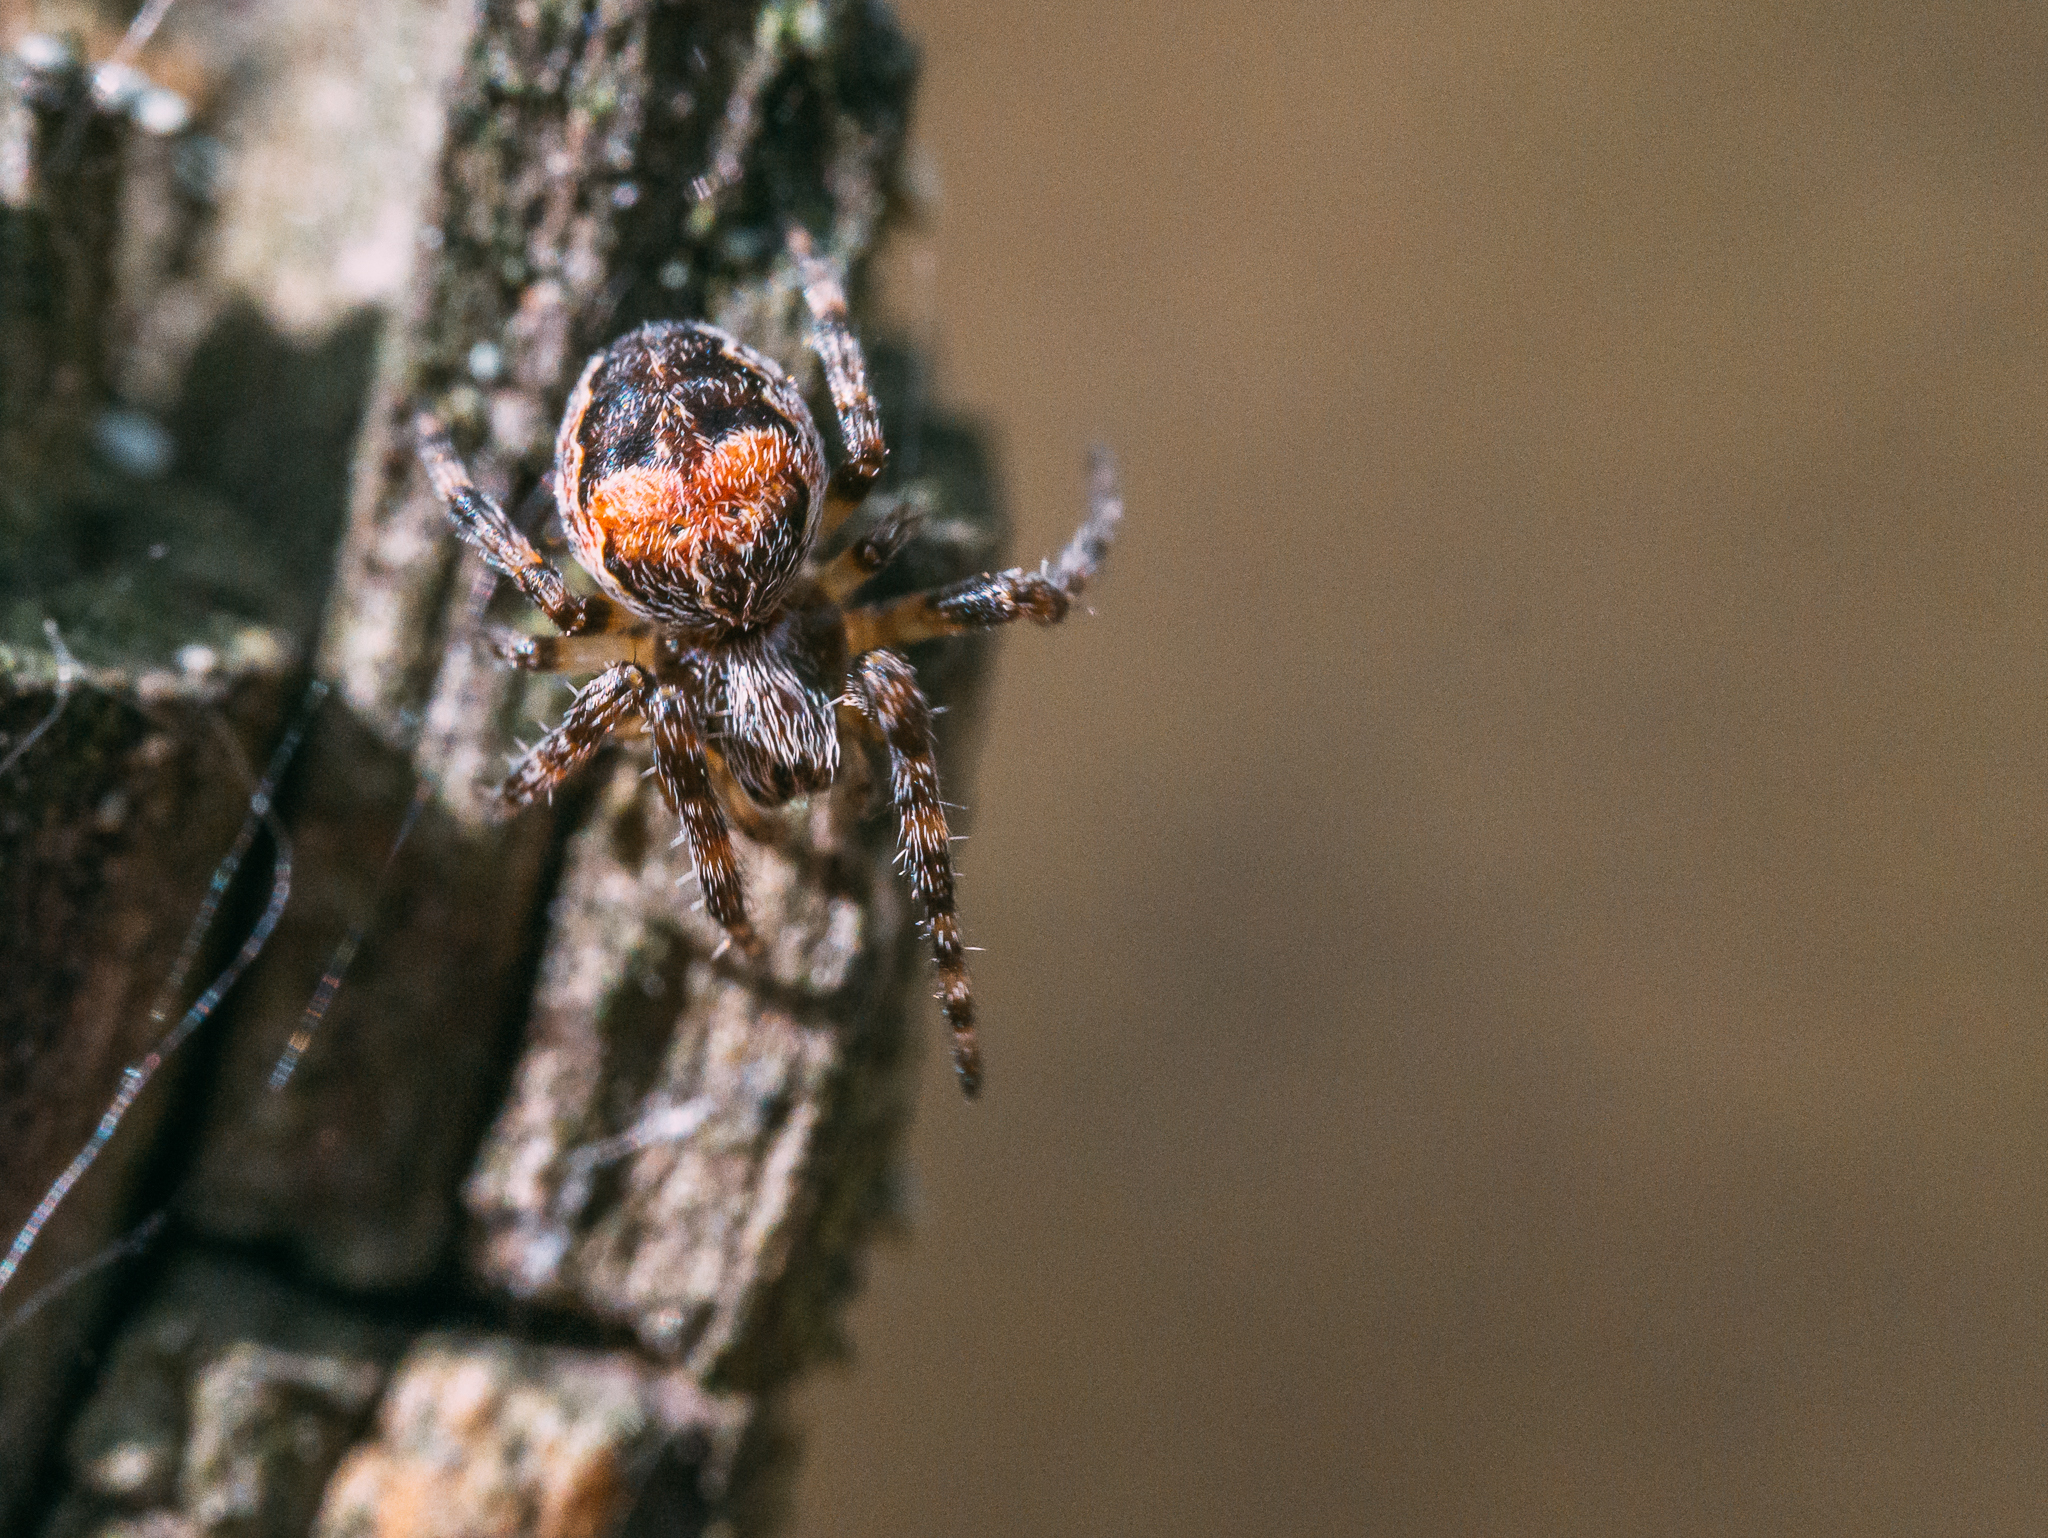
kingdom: Animalia
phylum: Arthropoda
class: Arachnida
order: Araneae
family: Araneidae
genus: Larinioides
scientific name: Larinioides patagiatus
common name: Ornamental orbweaver
